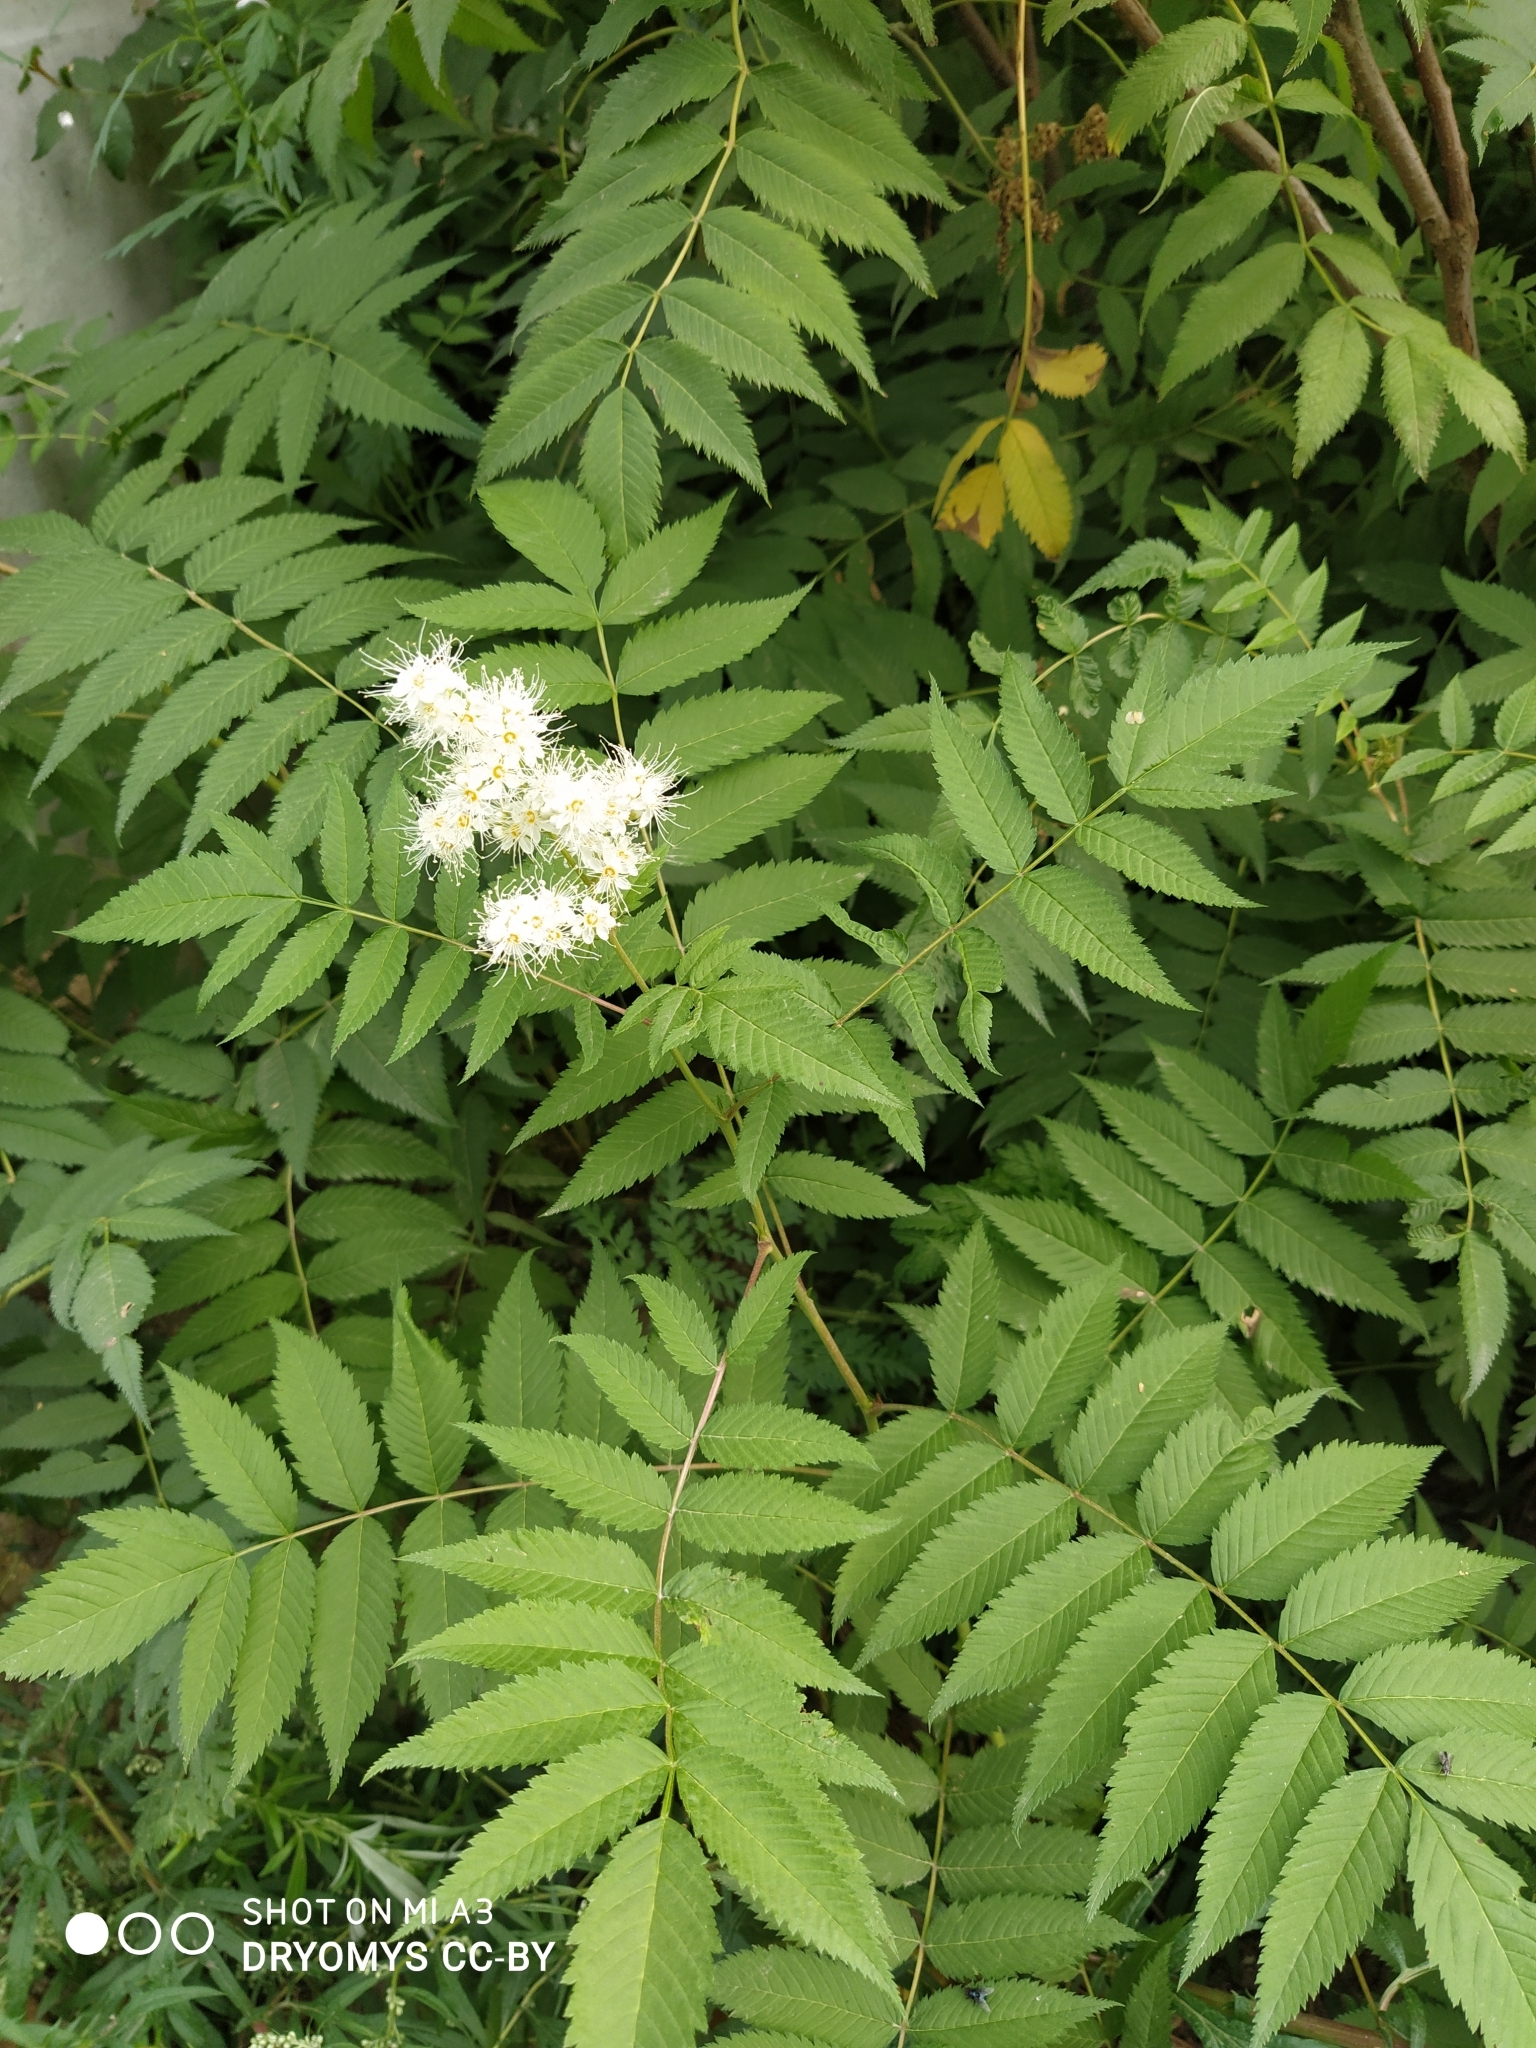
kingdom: Plantae
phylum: Tracheophyta
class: Magnoliopsida
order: Rosales
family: Rosaceae
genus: Sorbaria
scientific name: Sorbaria sorbifolia
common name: False spiraea
